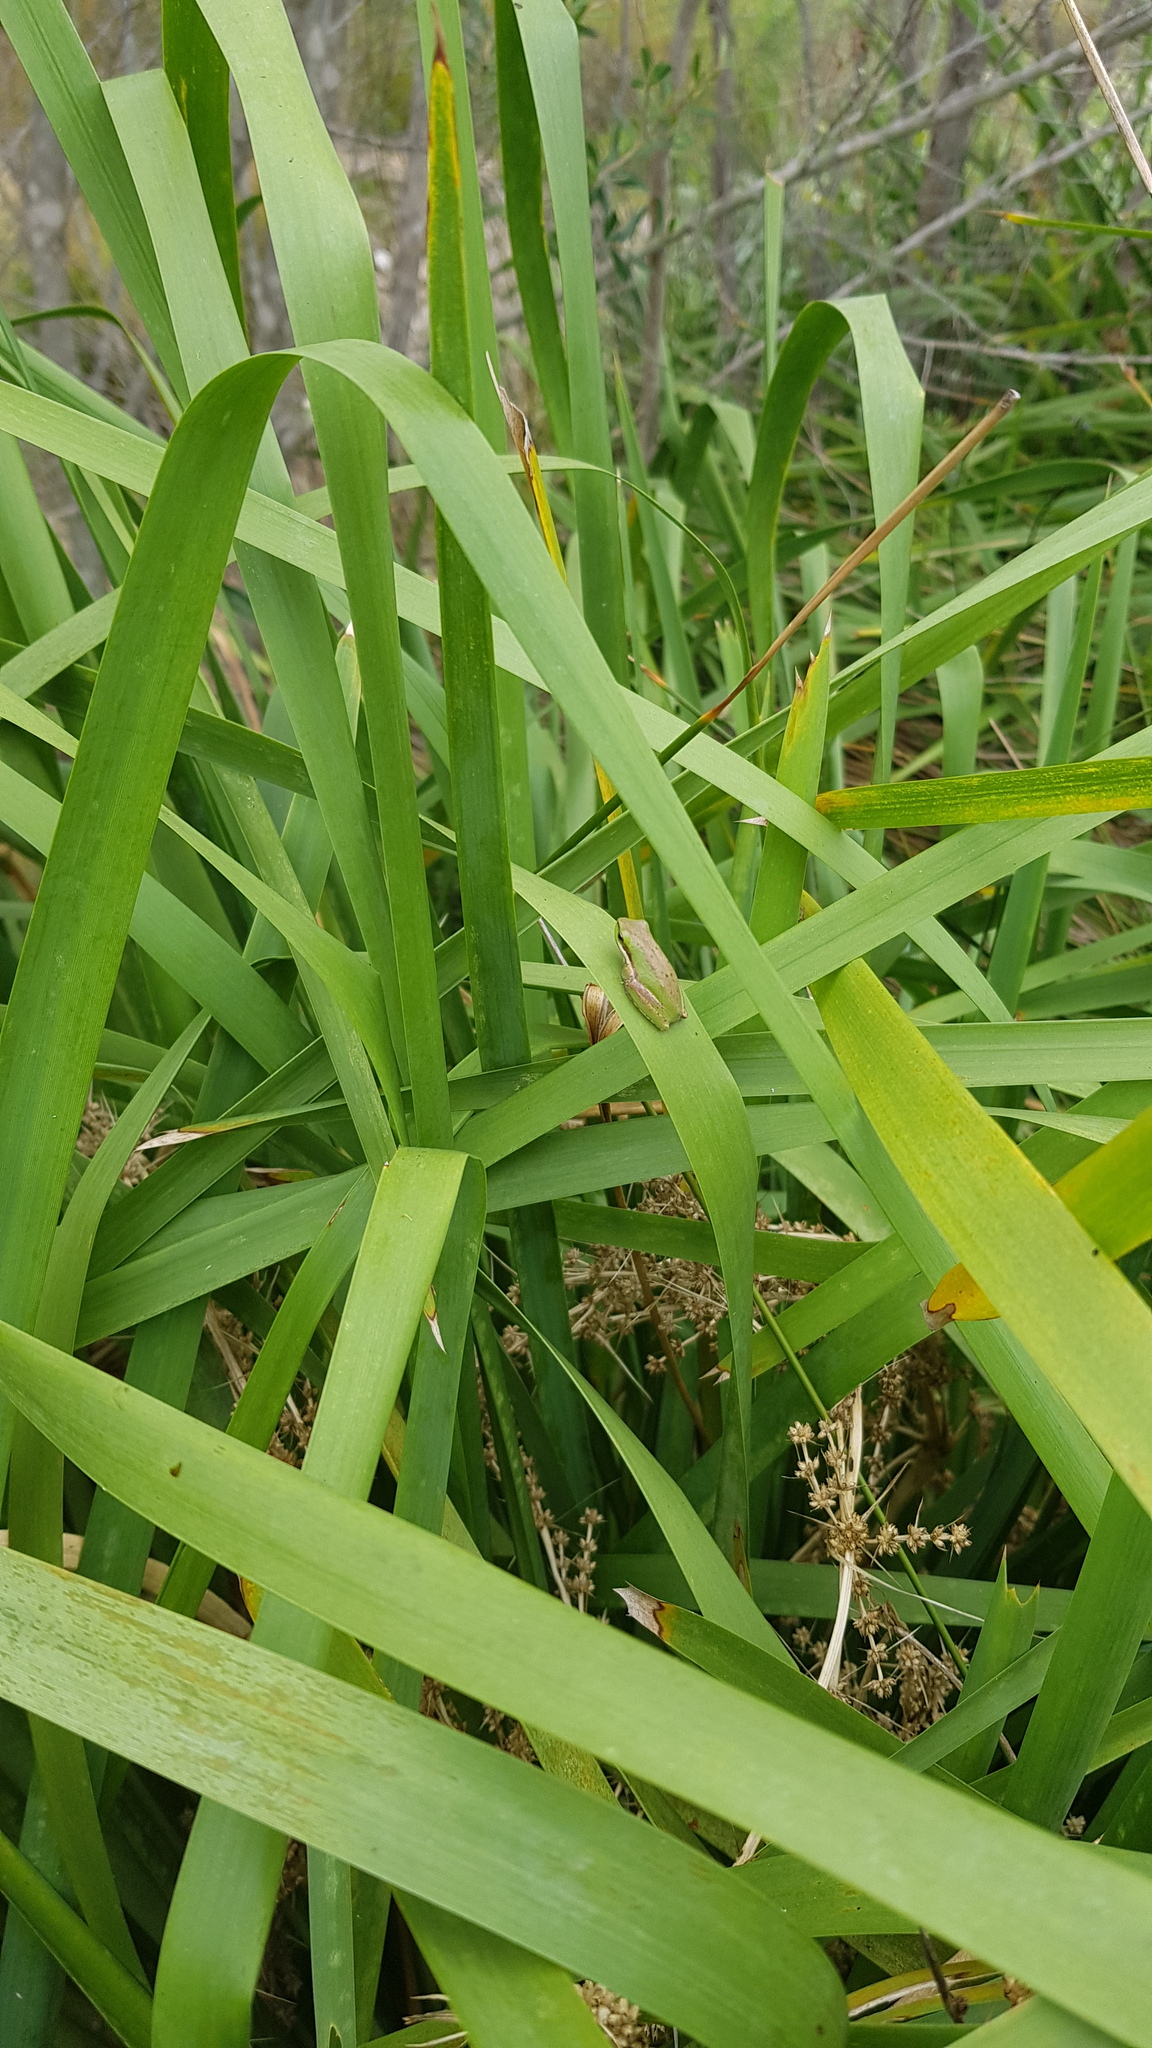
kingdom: Animalia
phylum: Chordata
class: Amphibia
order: Anura
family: Pelodryadidae
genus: Litoria
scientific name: Litoria fallax
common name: Eastern dwarf treefrog
